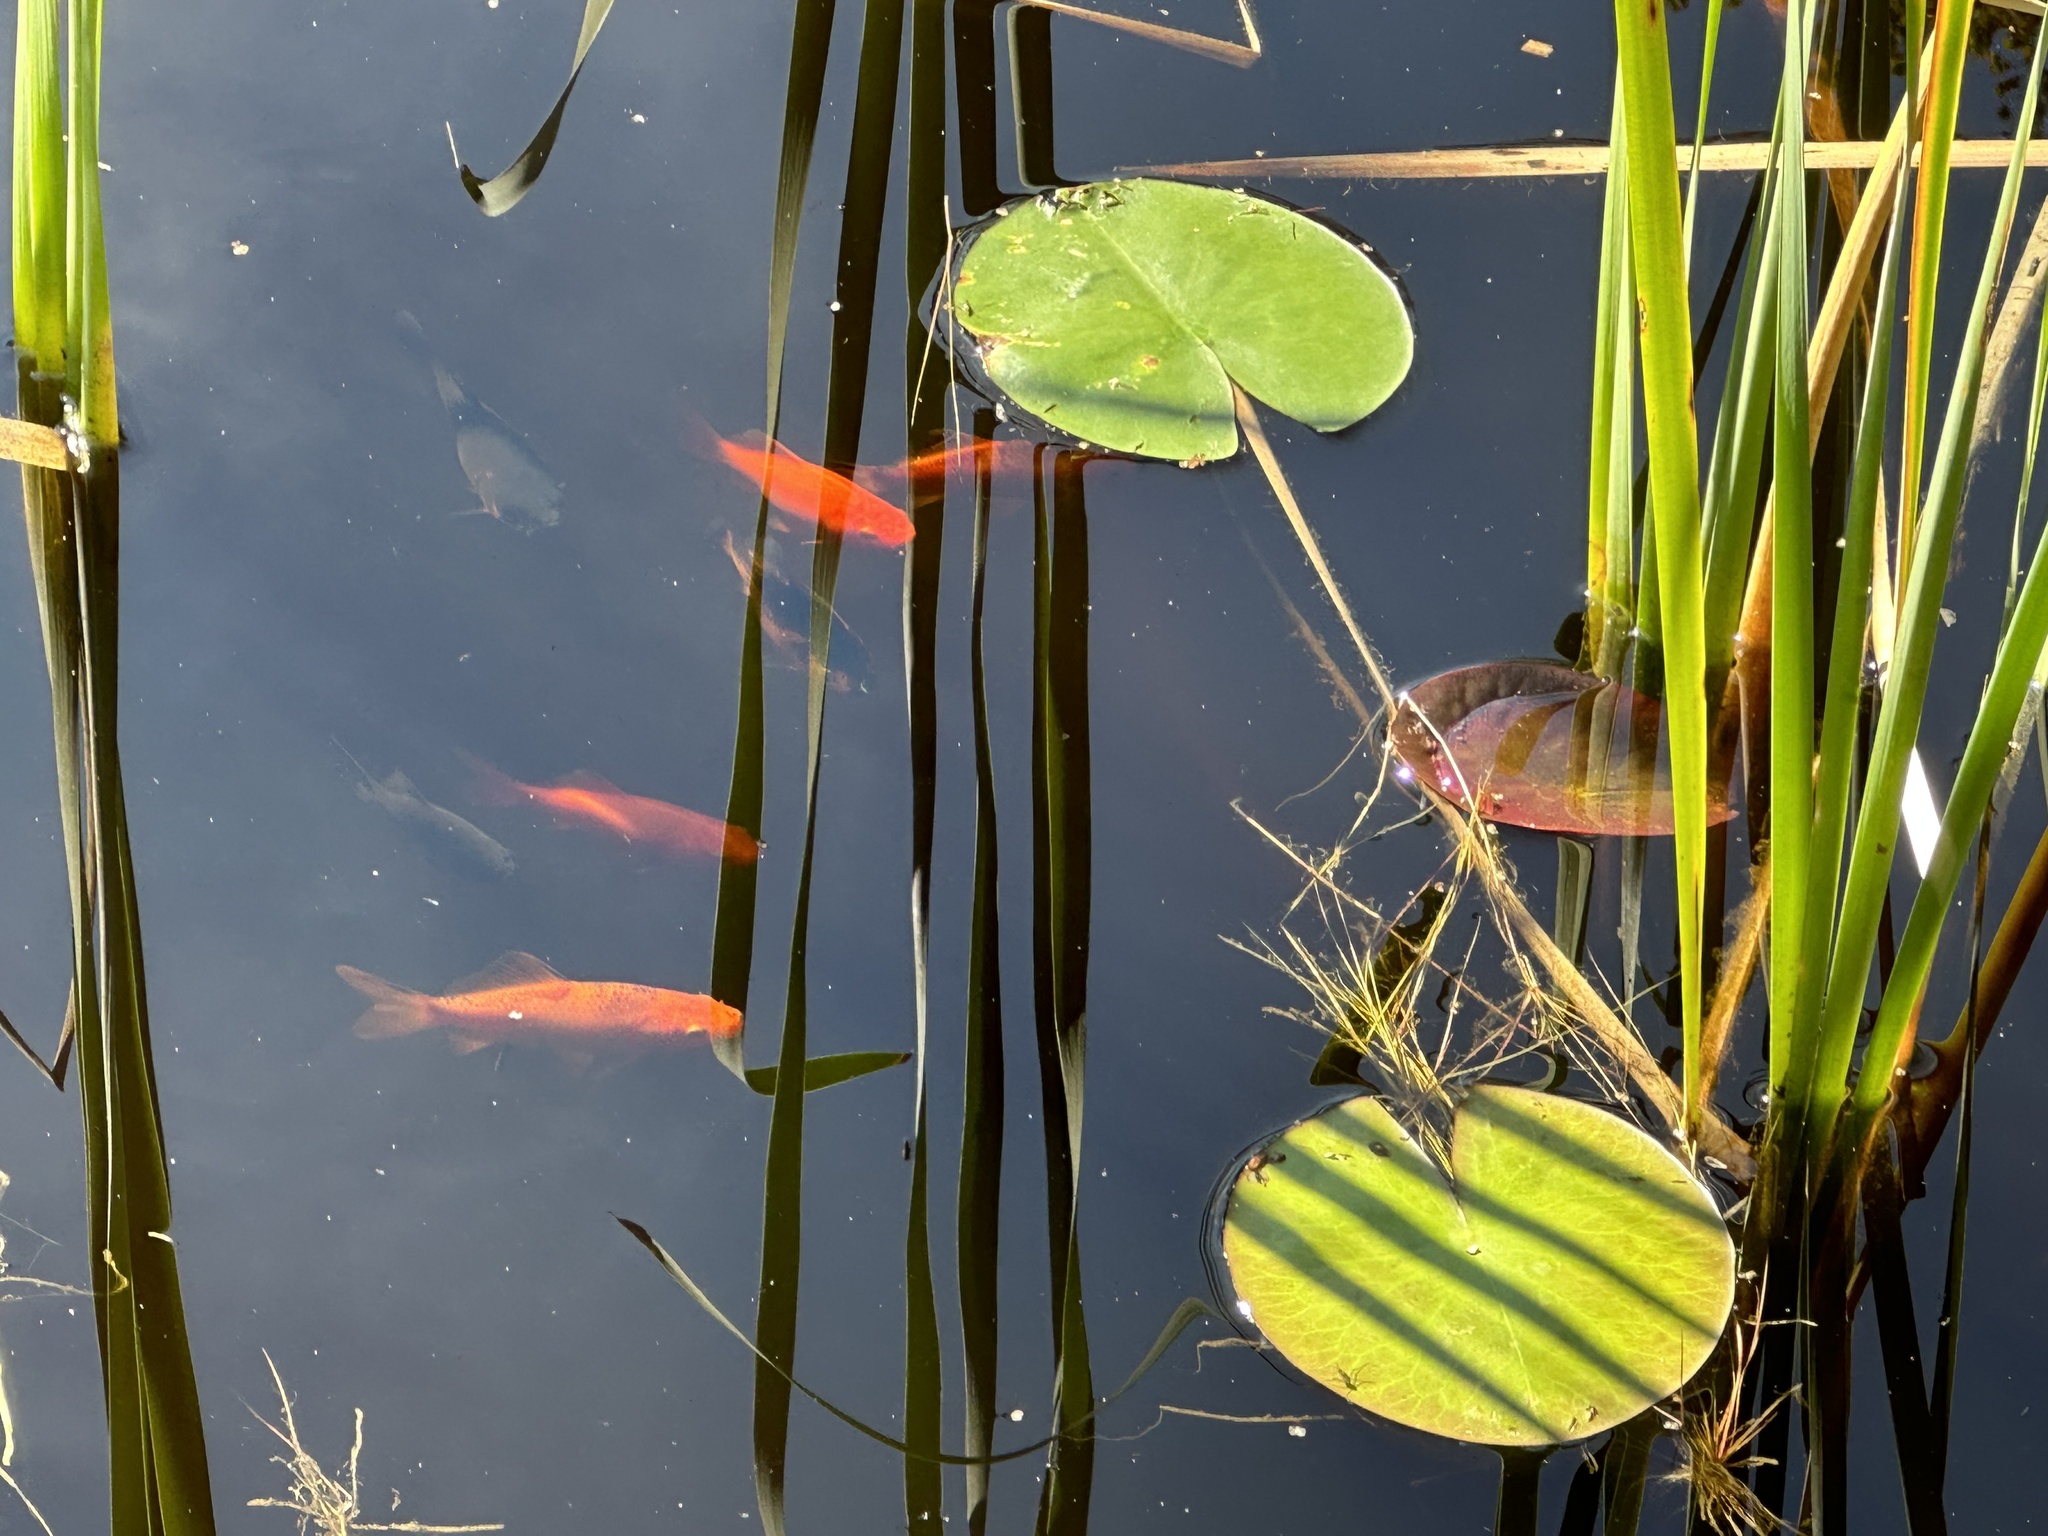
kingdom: Animalia
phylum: Chordata
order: Cypriniformes
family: Cyprinidae
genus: Carassius
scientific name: Carassius auratus
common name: Goldfish
